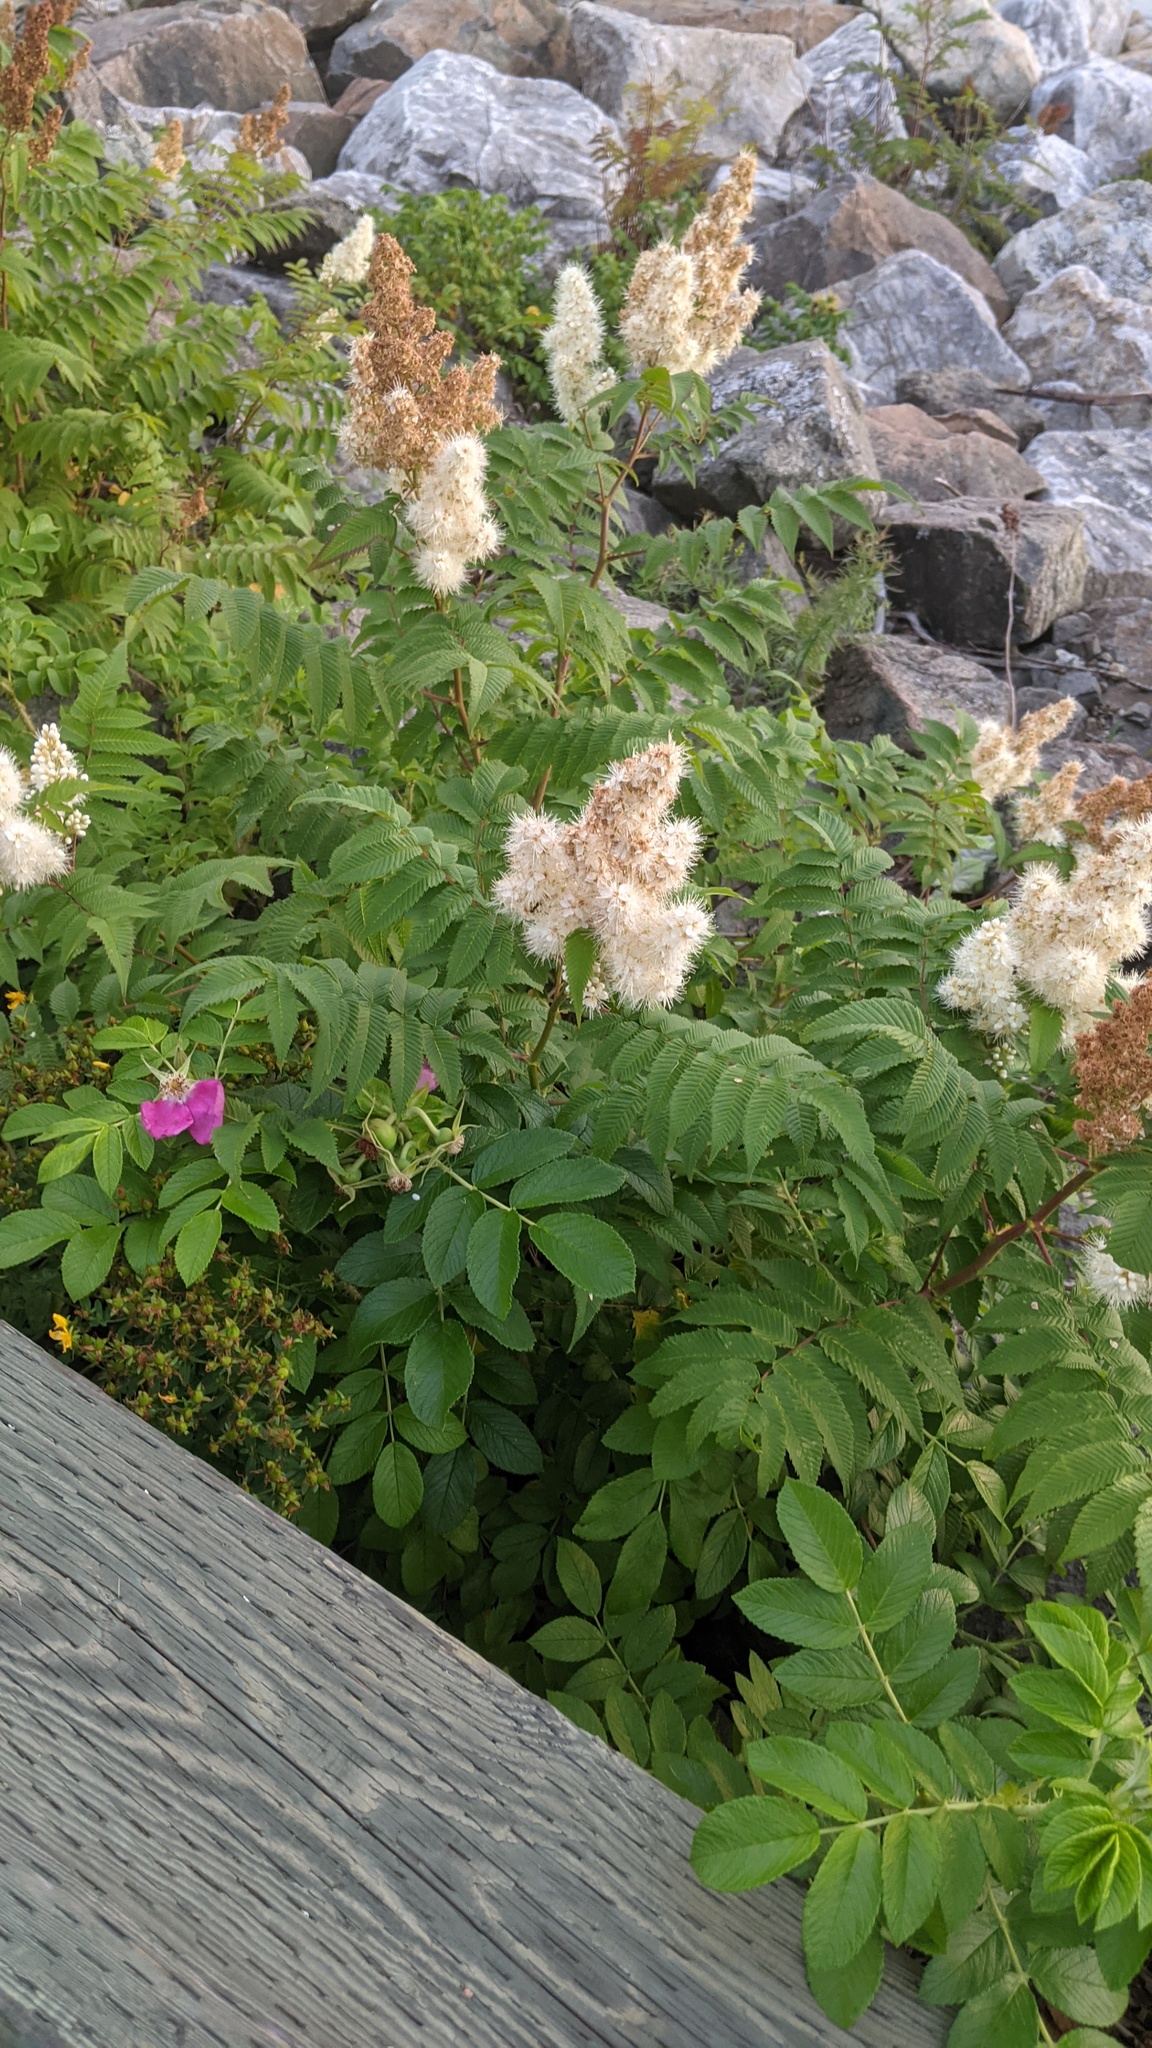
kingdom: Plantae
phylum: Tracheophyta
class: Magnoliopsida
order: Rosales
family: Rosaceae
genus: Sorbaria
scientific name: Sorbaria sorbifolia
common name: False spiraea
